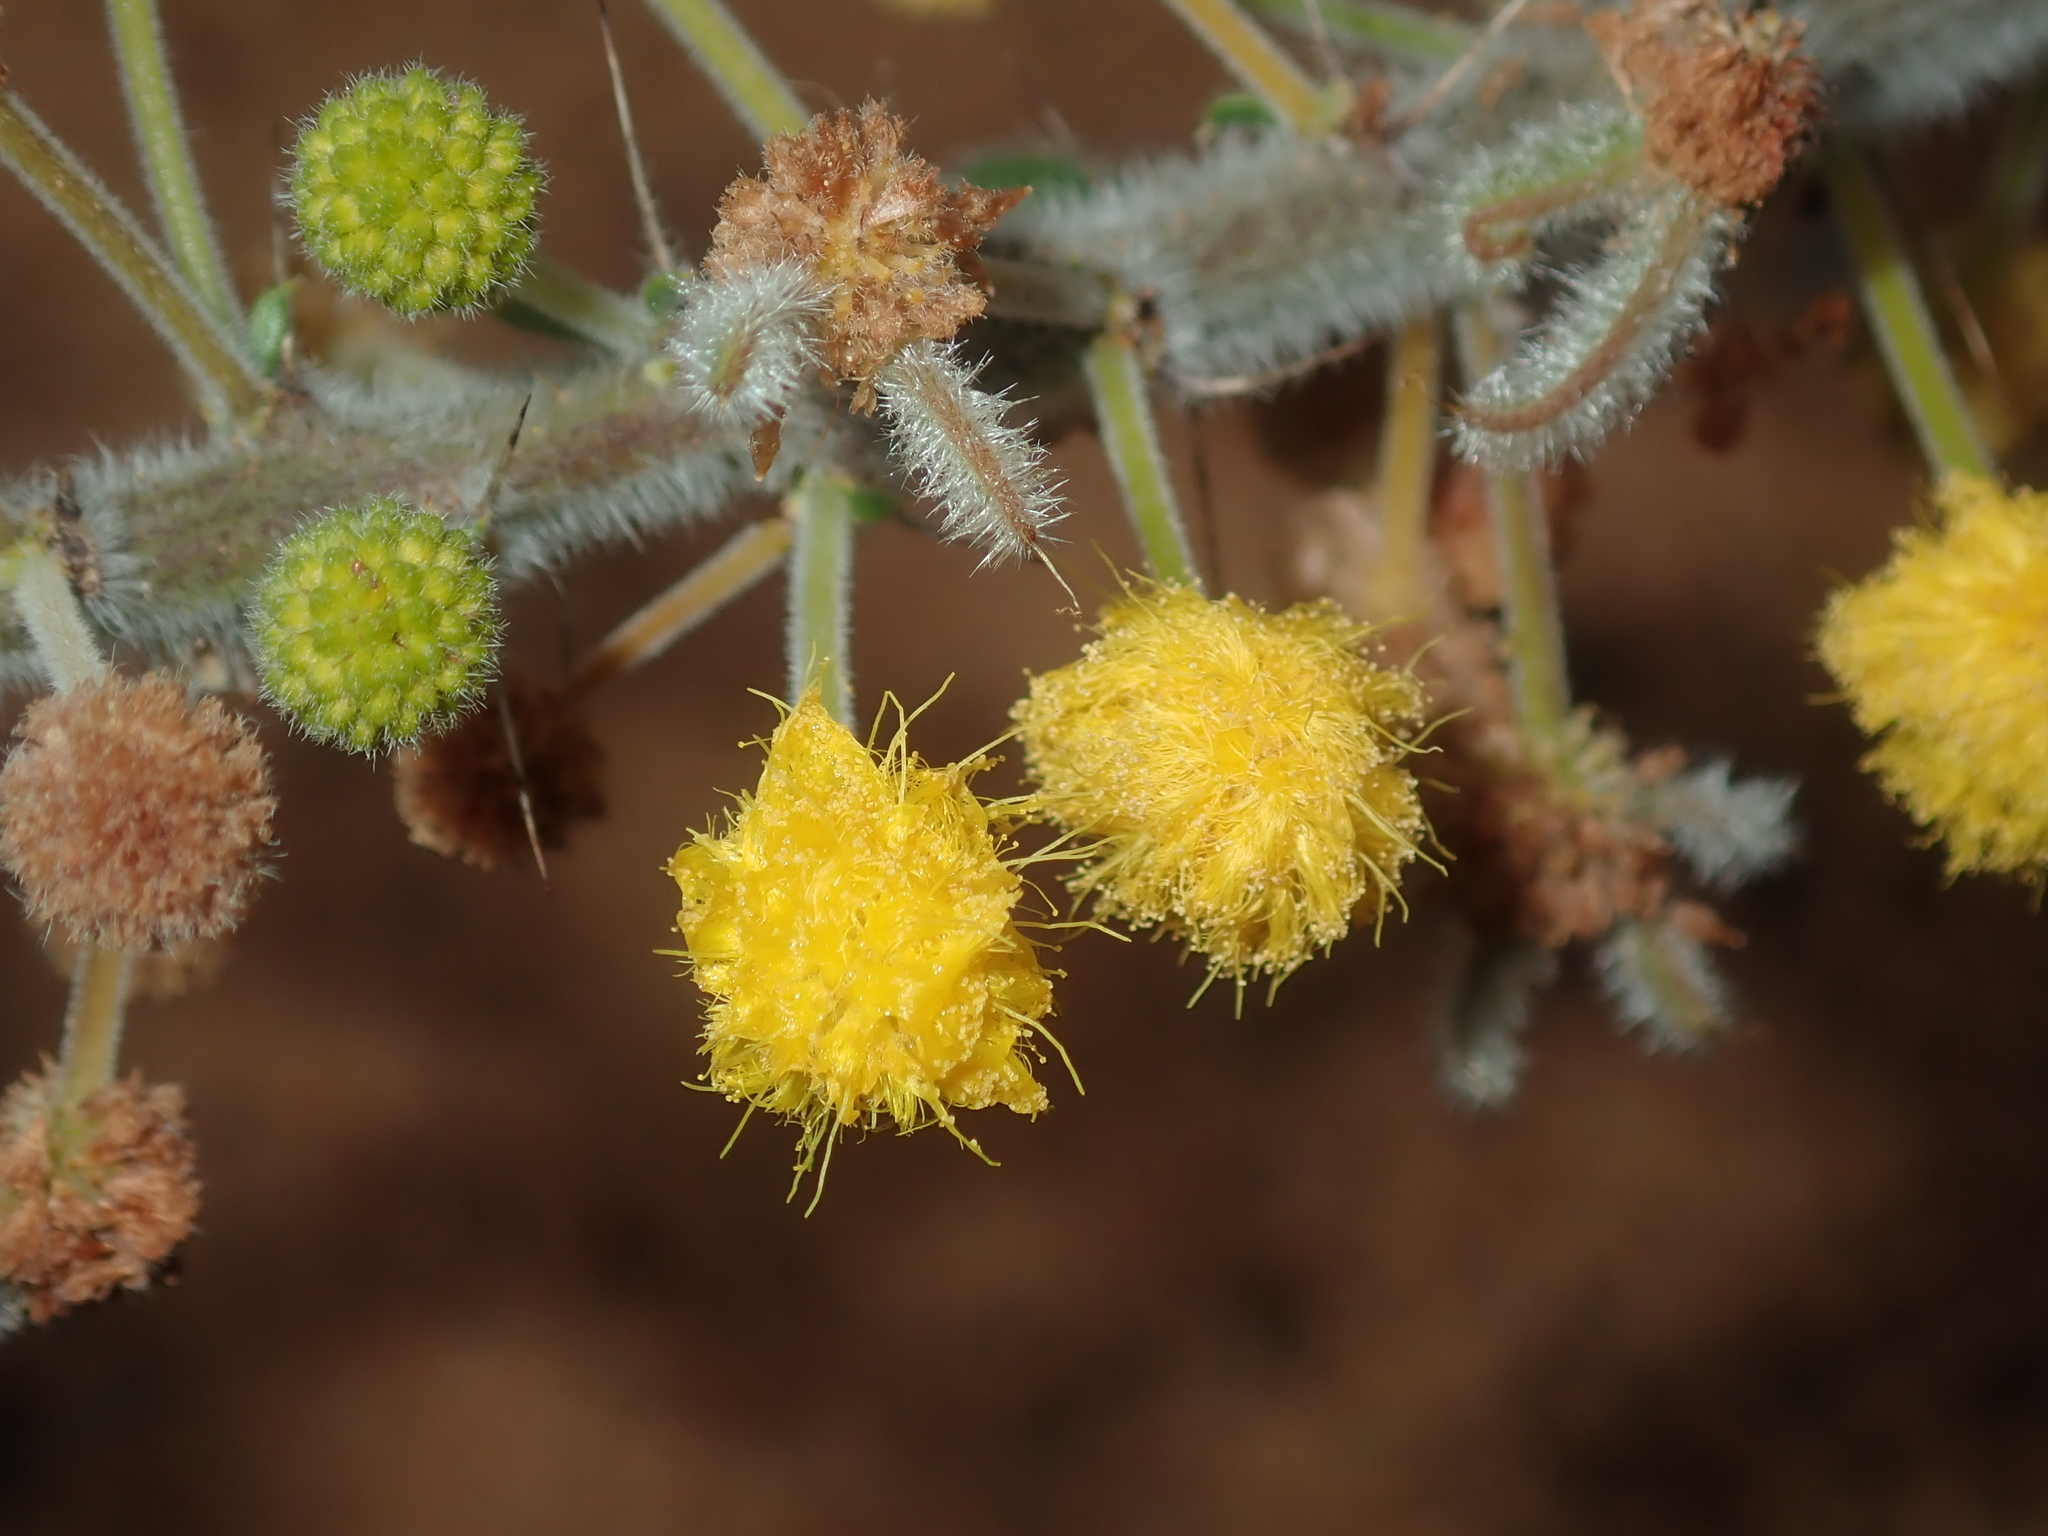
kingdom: Plantae
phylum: Tracheophyta
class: Magnoliopsida
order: Fabales
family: Fabaceae
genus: Acacia
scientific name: Acacia idiomorpha
